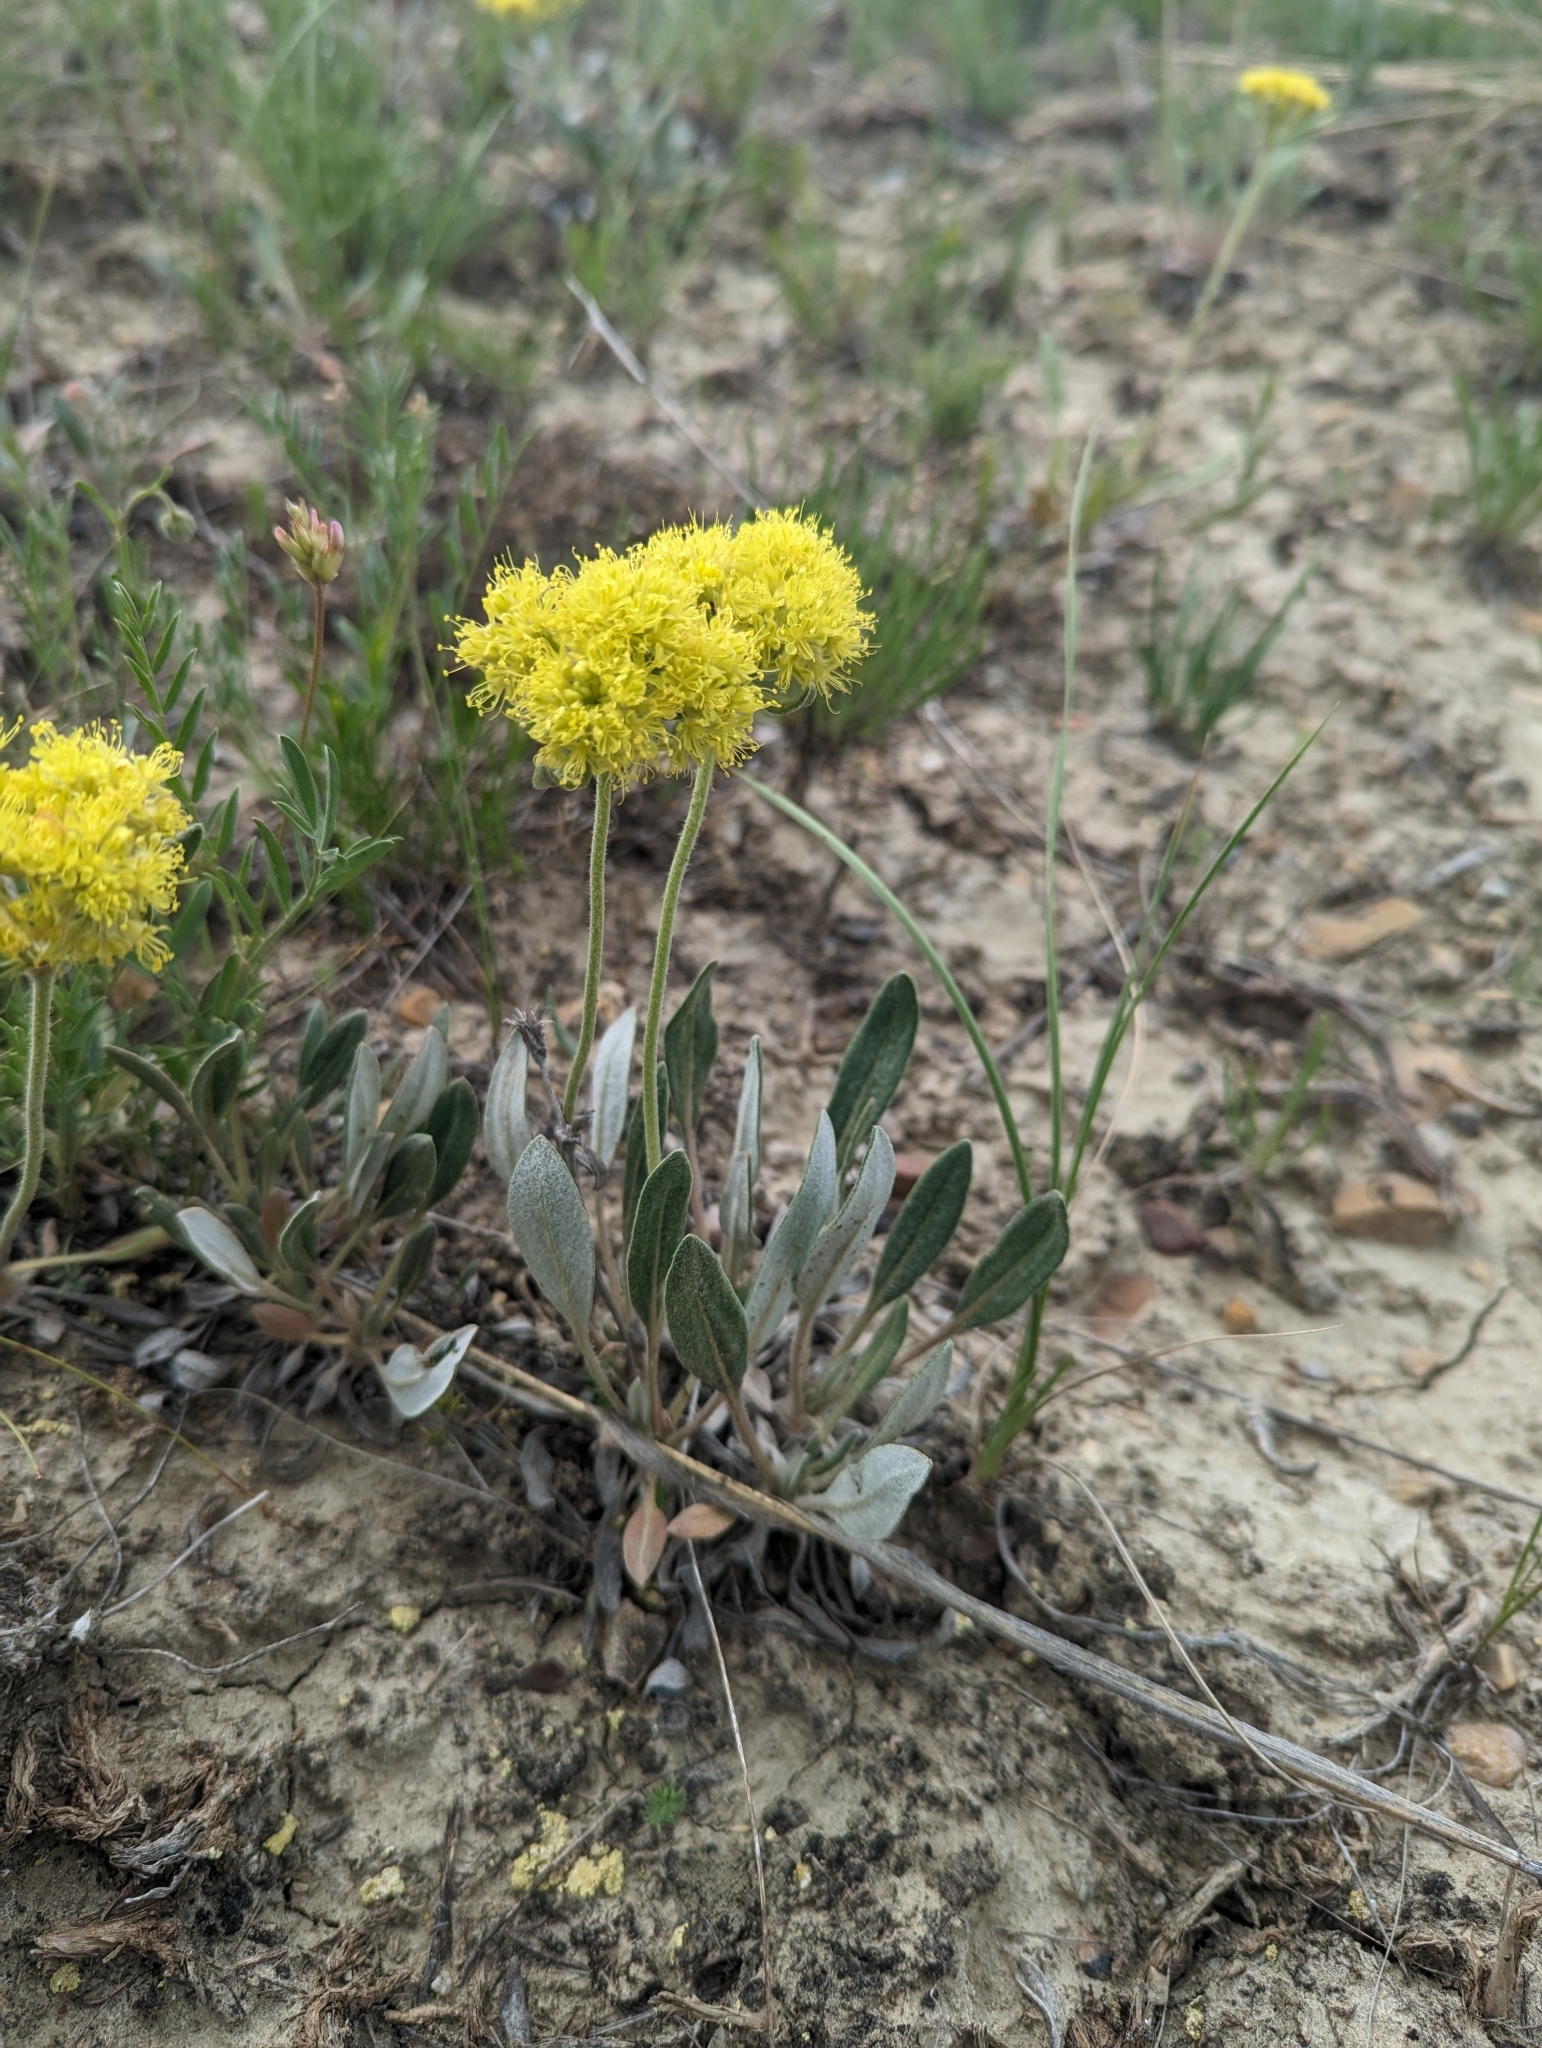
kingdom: Plantae
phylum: Tracheophyta
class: Magnoliopsida
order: Caryophyllales
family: Polygonaceae
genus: Eriogonum
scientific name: Eriogonum flavum
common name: Alpine golden wild buckwheat
